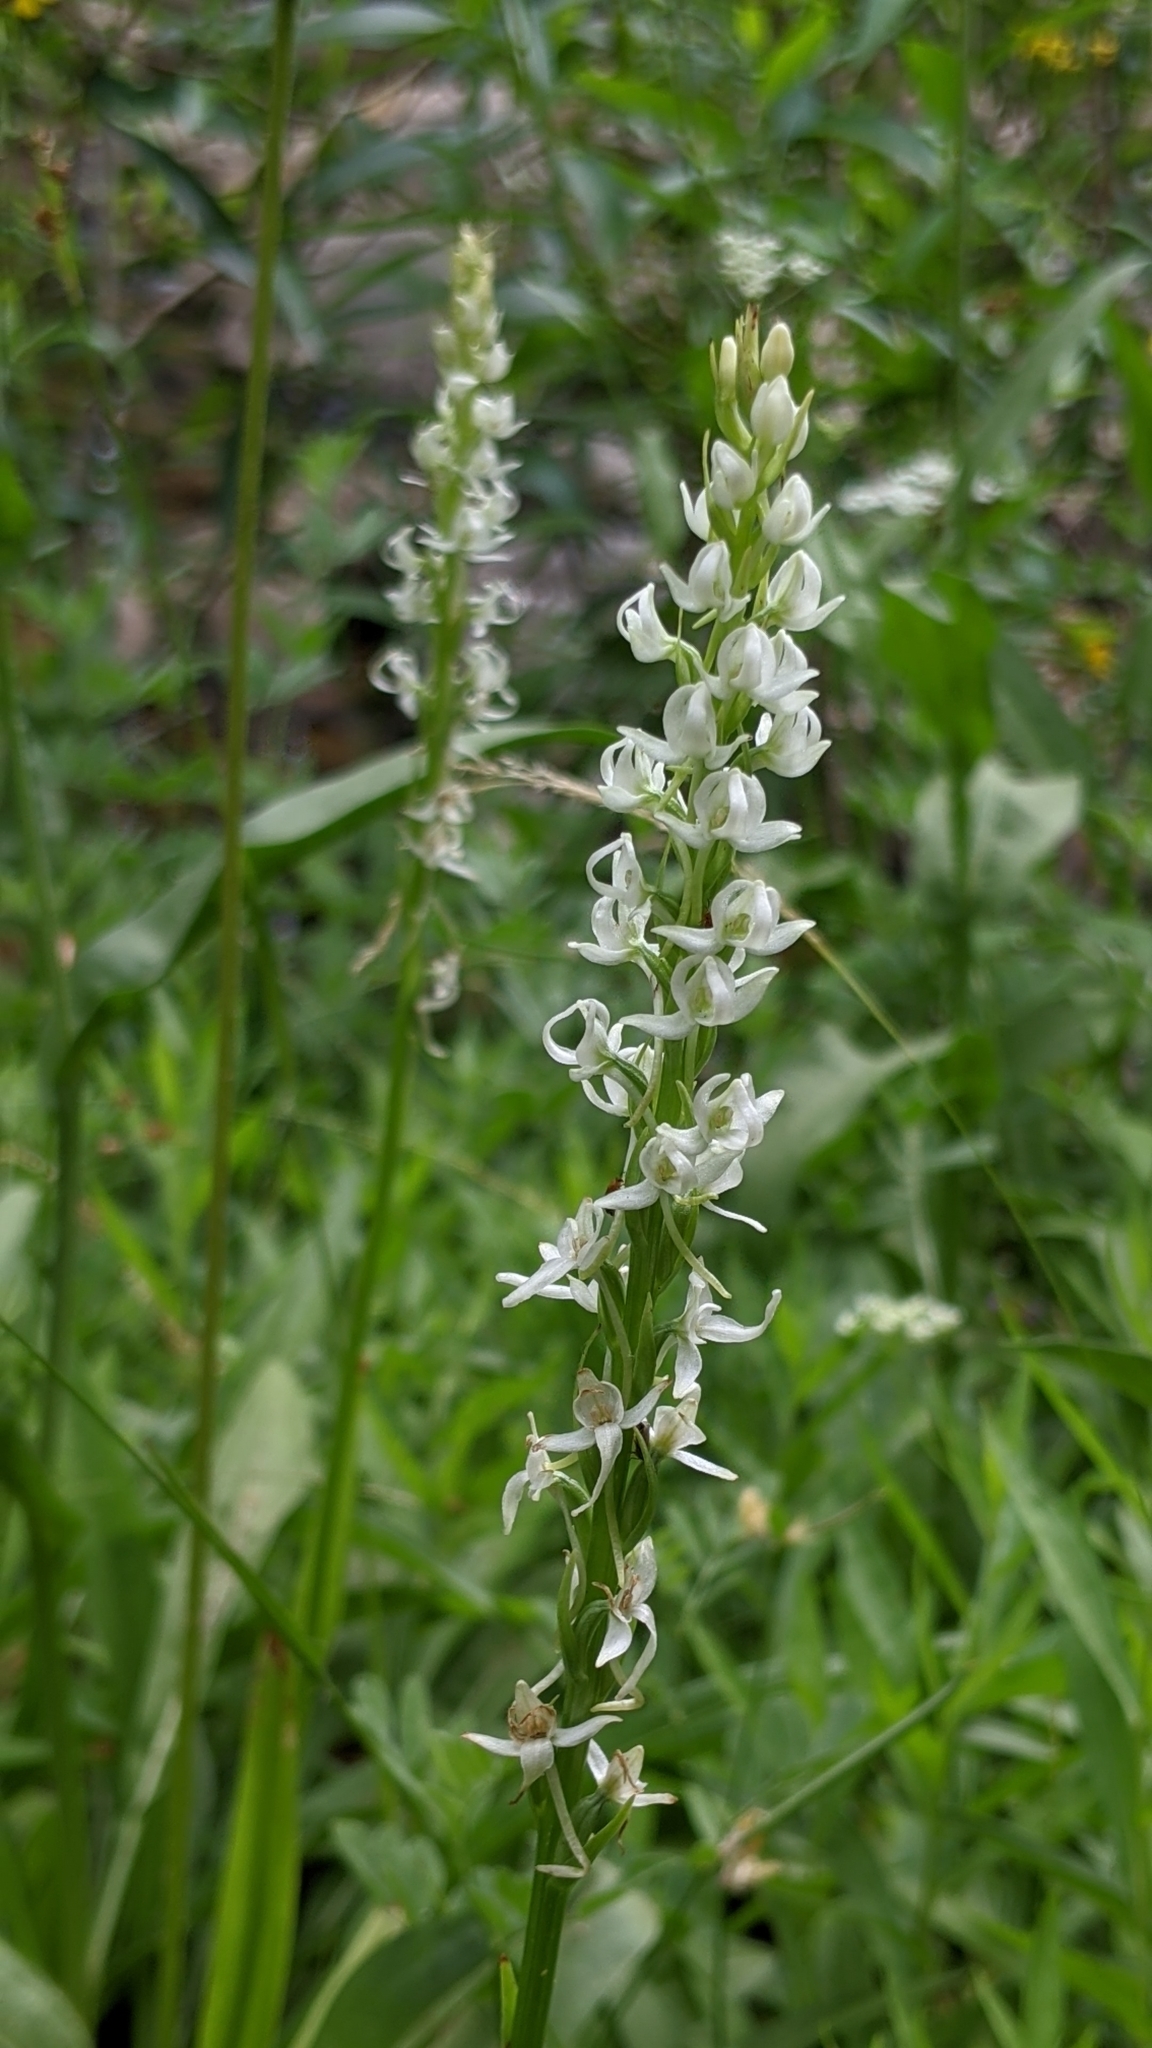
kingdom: Plantae
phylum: Tracheophyta
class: Liliopsida
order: Asparagales
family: Orchidaceae
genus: Platanthera
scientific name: Platanthera dilatata
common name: Bog candles
